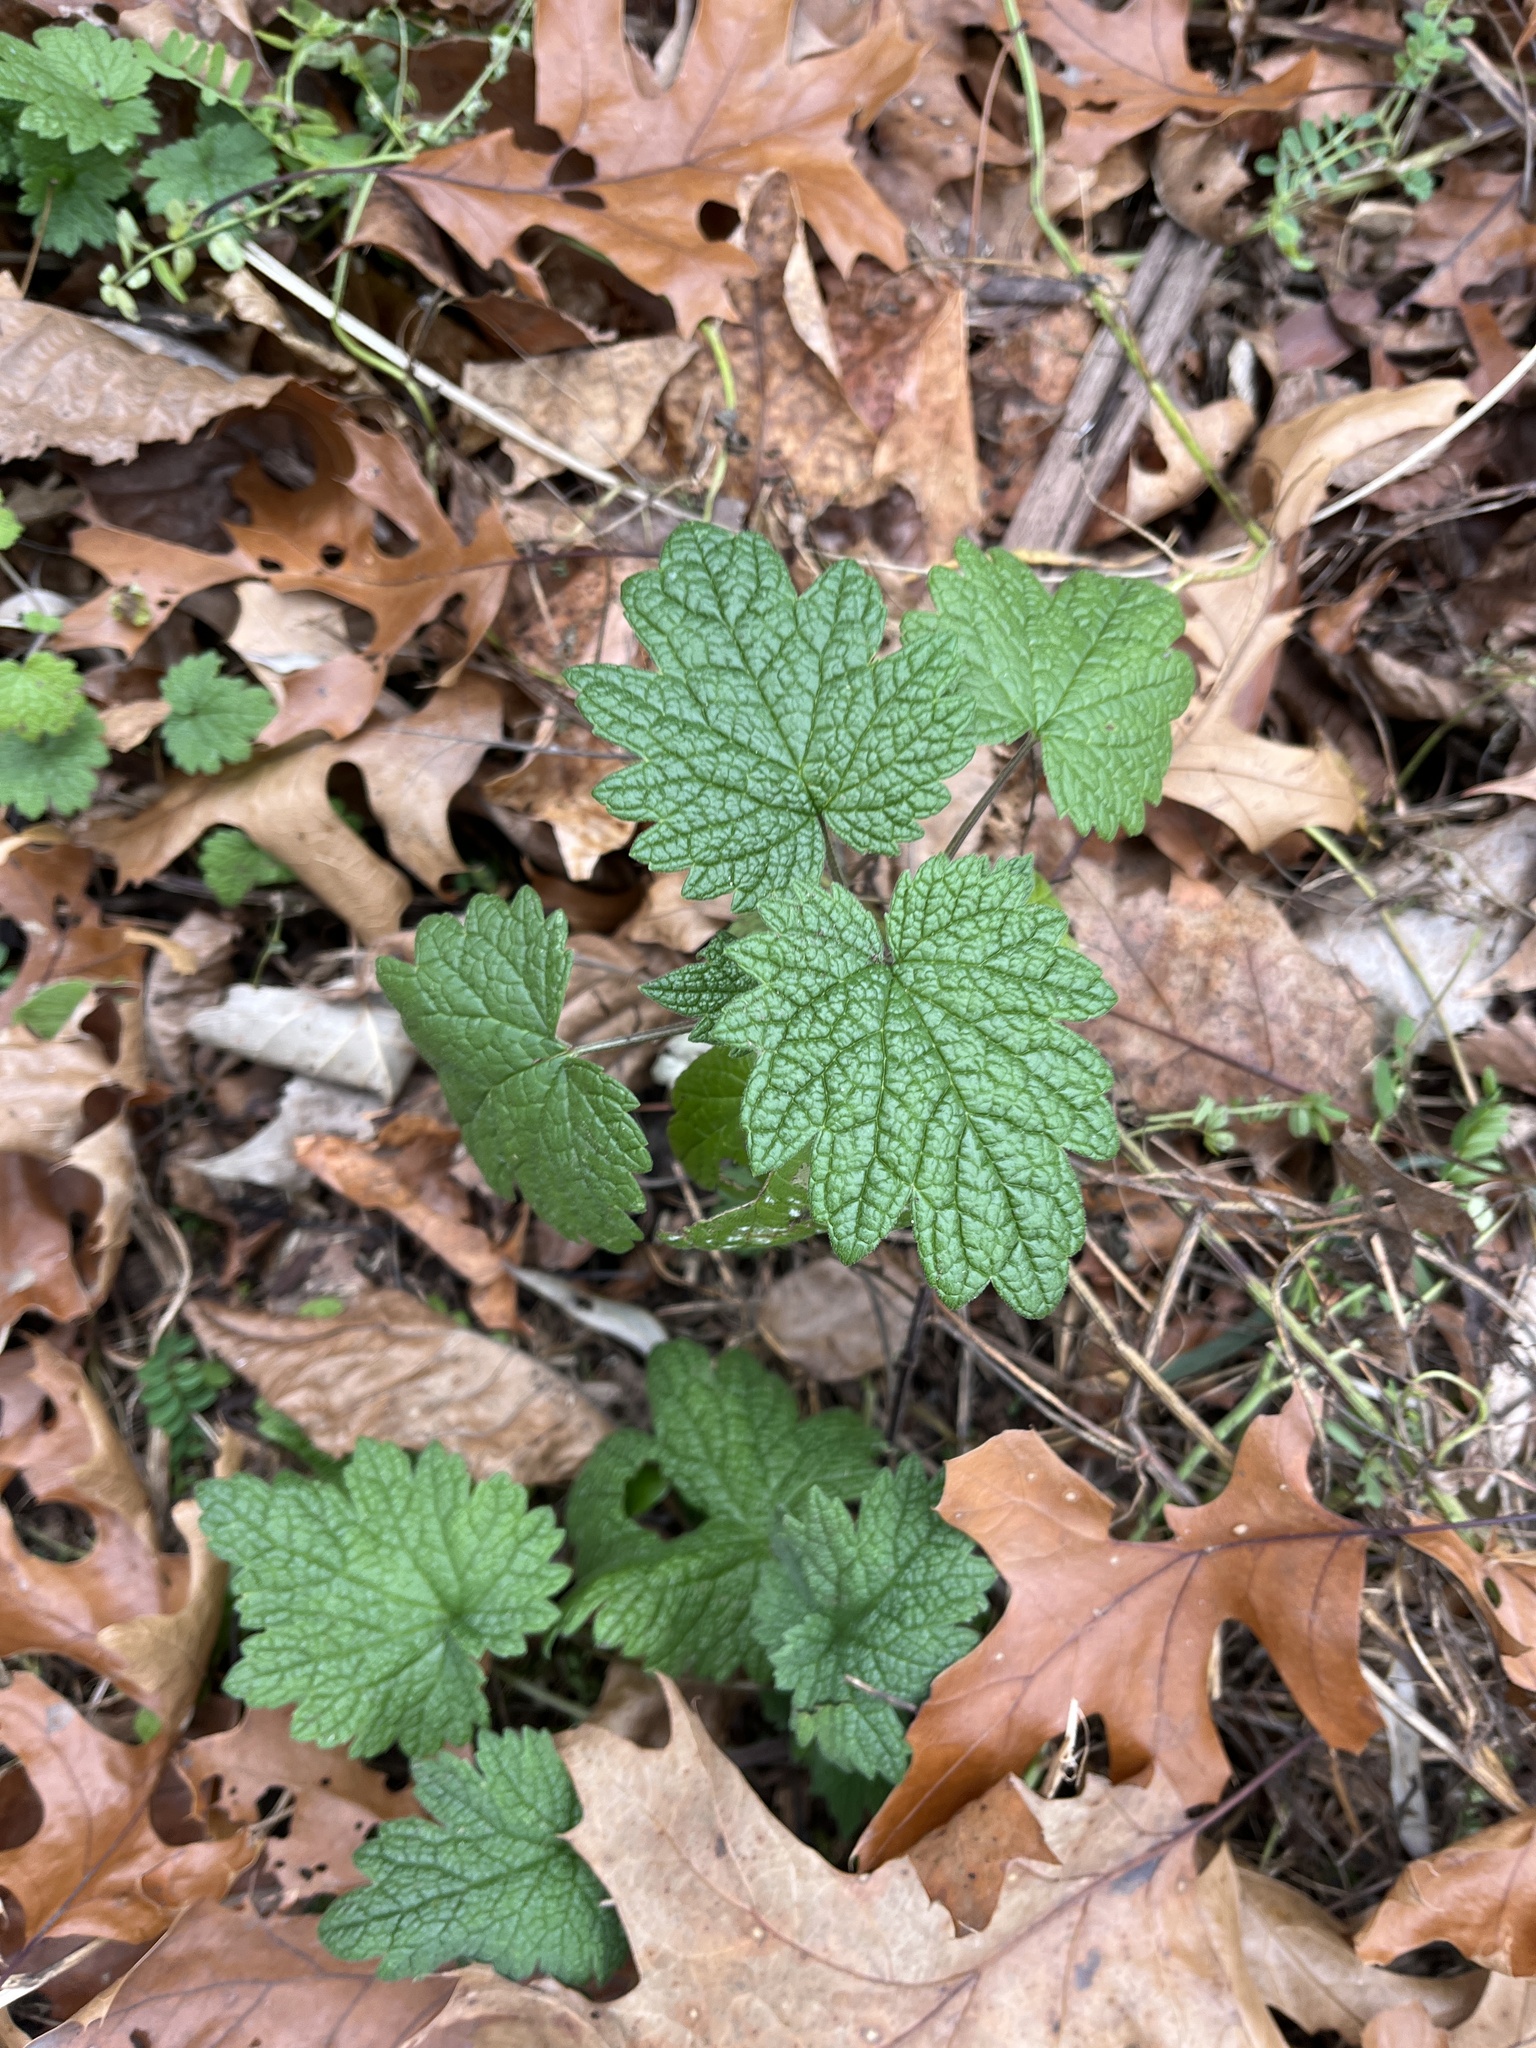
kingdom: Plantae
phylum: Tracheophyta
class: Magnoliopsida
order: Lamiales
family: Lamiaceae
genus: Leonurus
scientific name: Leonurus cardiaca
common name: Motherwort
